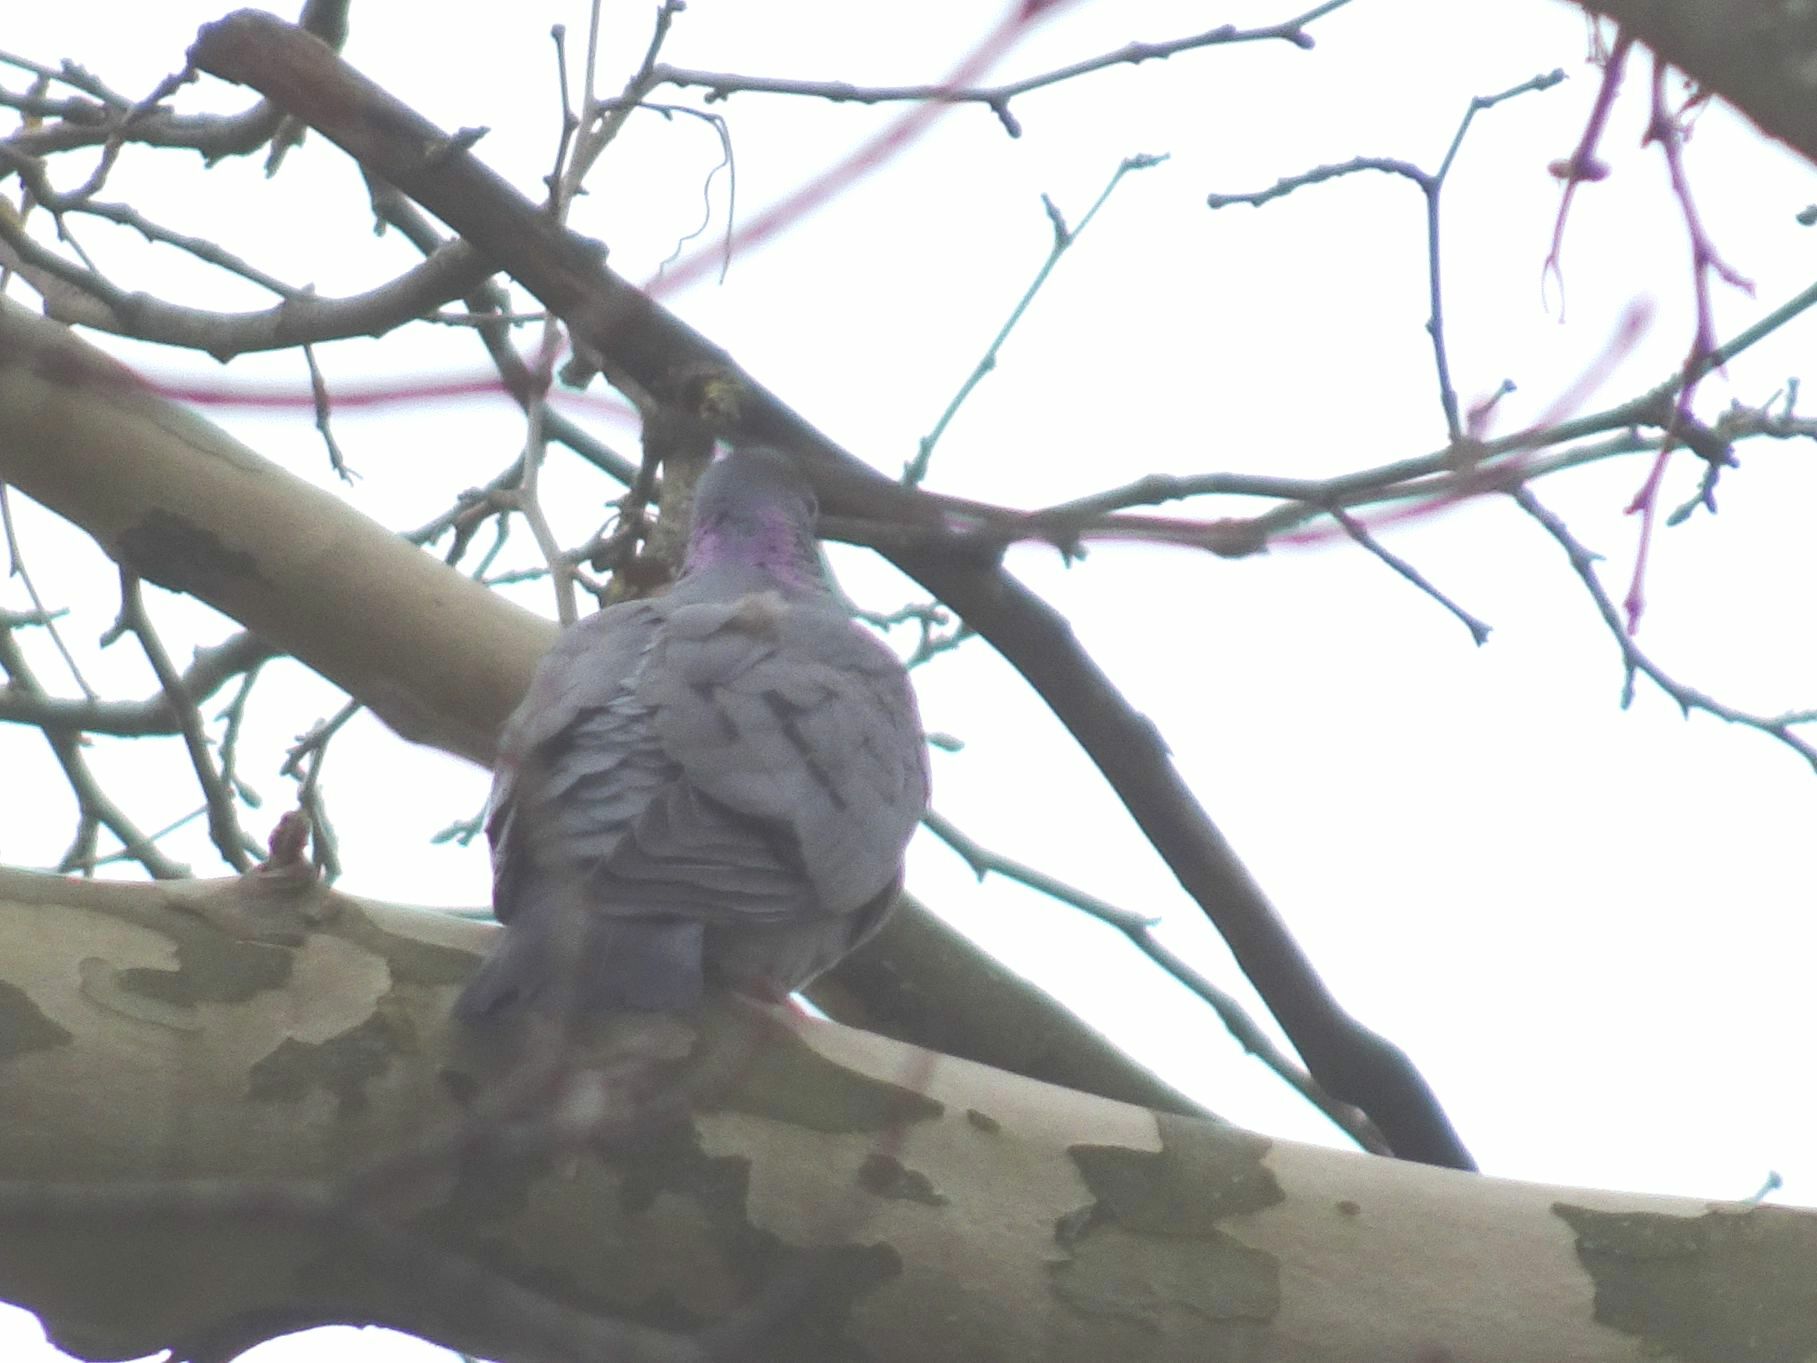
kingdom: Animalia
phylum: Chordata
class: Aves
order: Columbiformes
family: Columbidae
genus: Columba
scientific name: Columba oenas
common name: Stock dove
